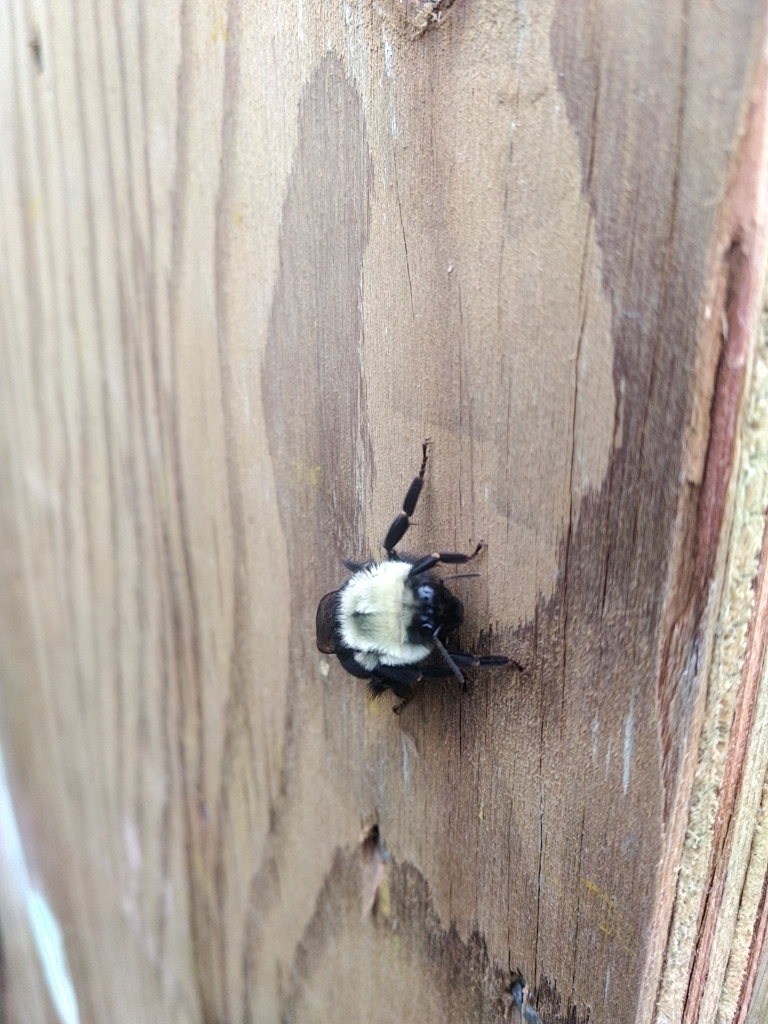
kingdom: Animalia
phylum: Arthropoda
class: Insecta
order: Hymenoptera
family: Apidae
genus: Bombus
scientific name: Bombus impatiens
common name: Common eastern bumble bee
